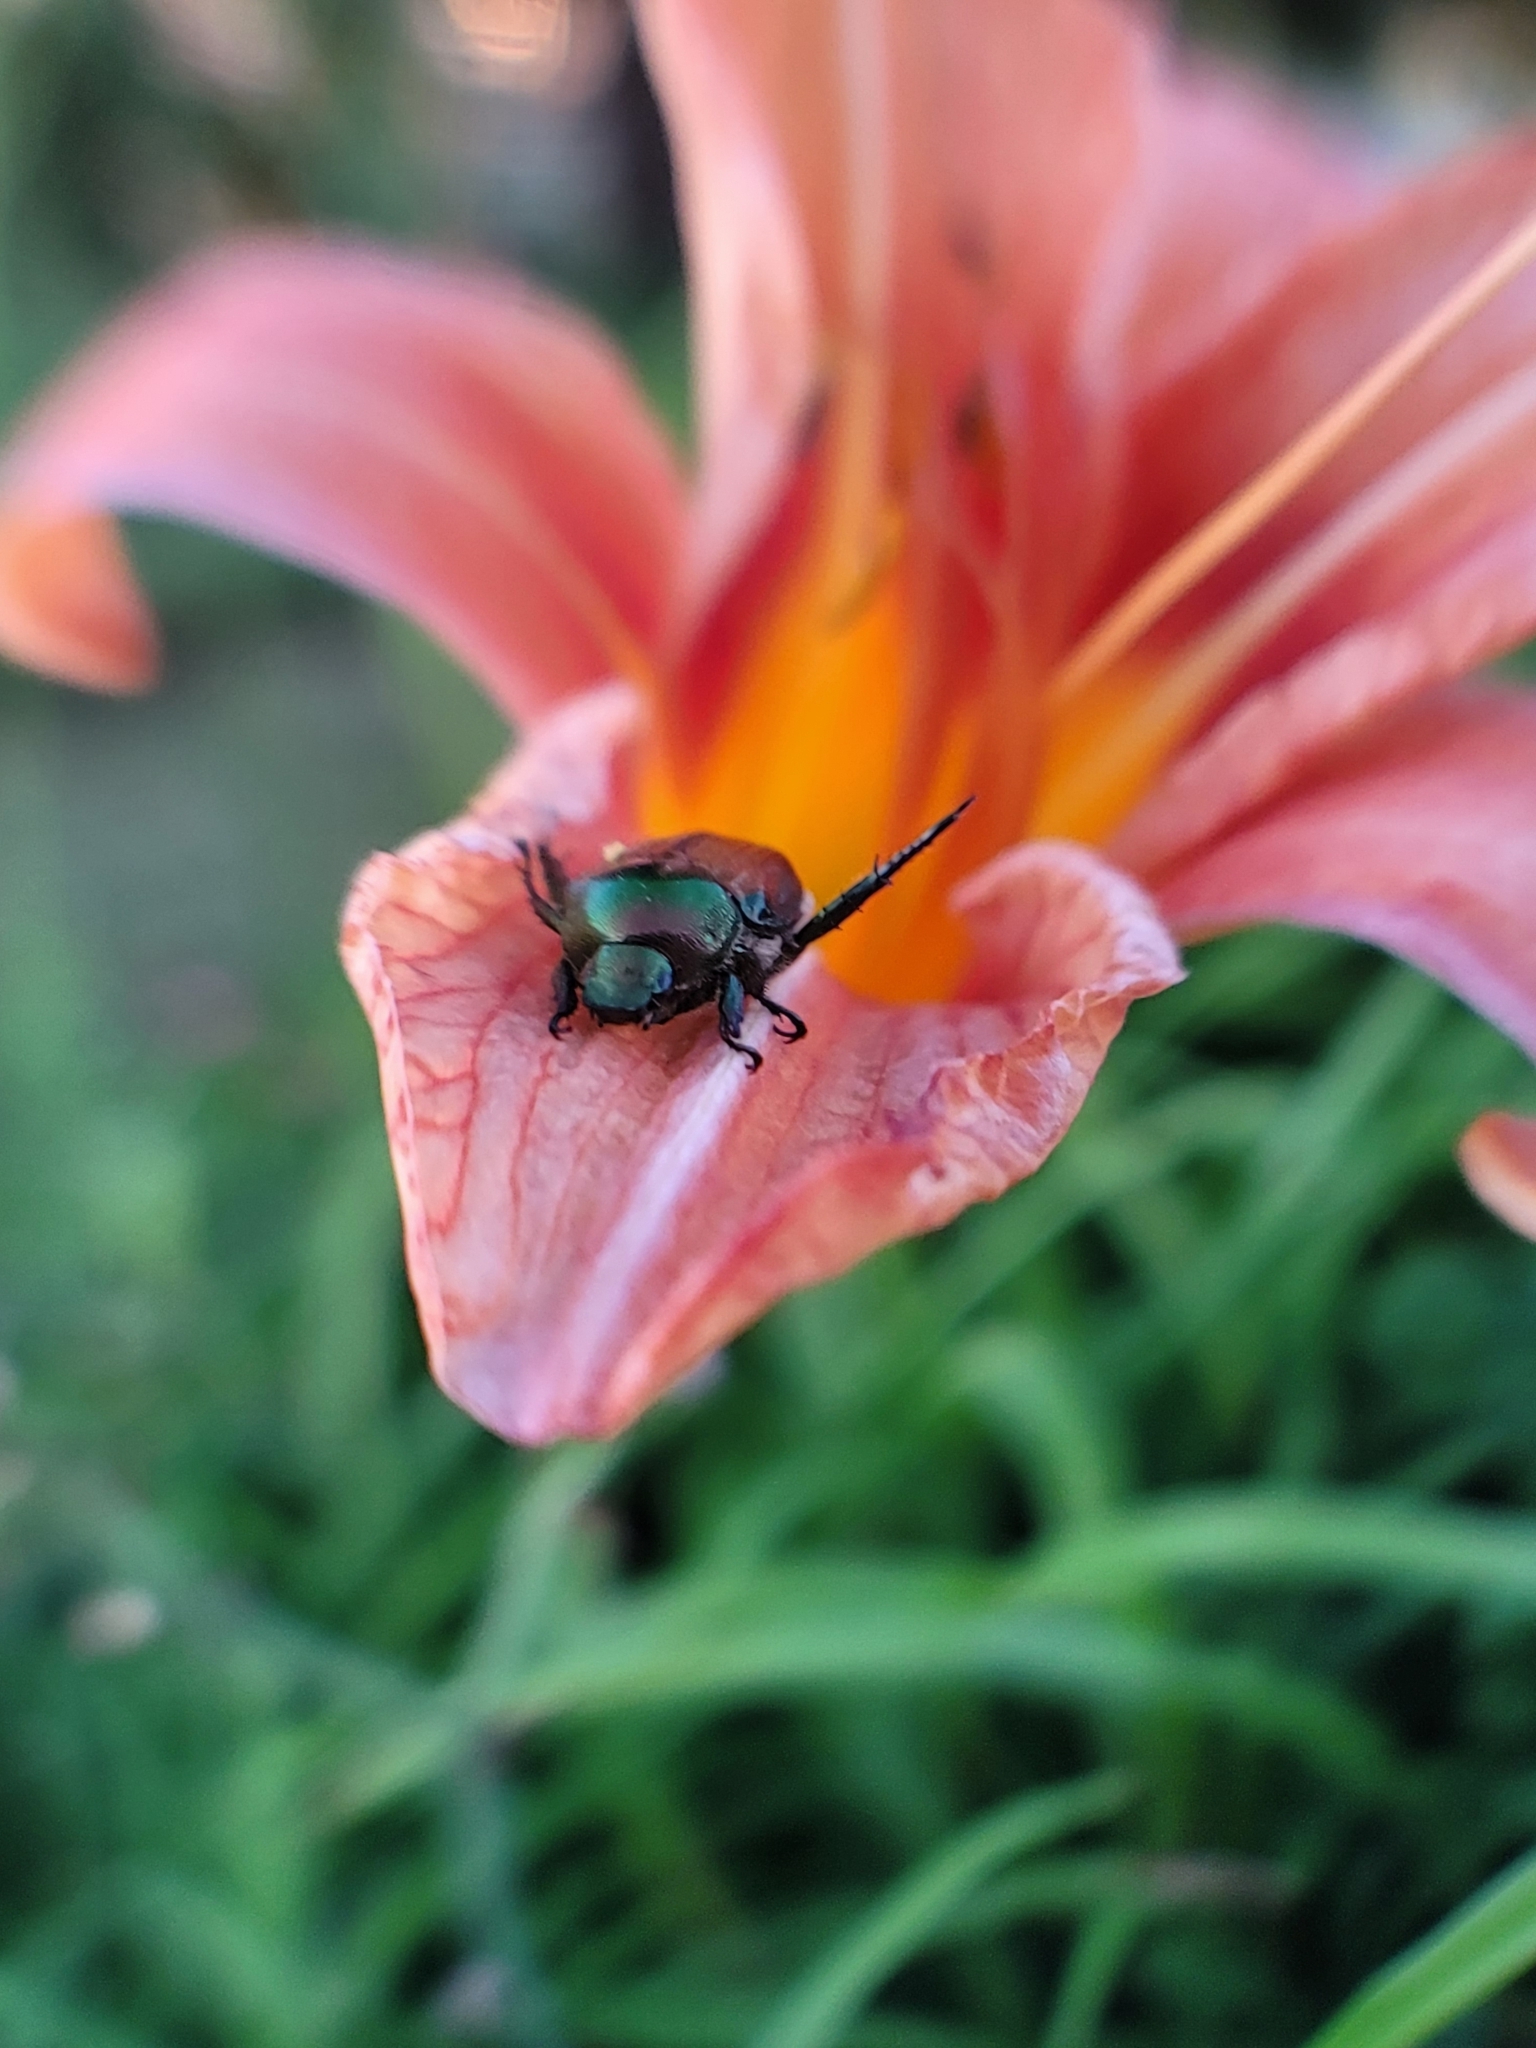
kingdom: Animalia
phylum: Arthropoda
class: Insecta
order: Coleoptera
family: Scarabaeidae
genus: Popillia
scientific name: Popillia japonica
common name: Japanese beetle
